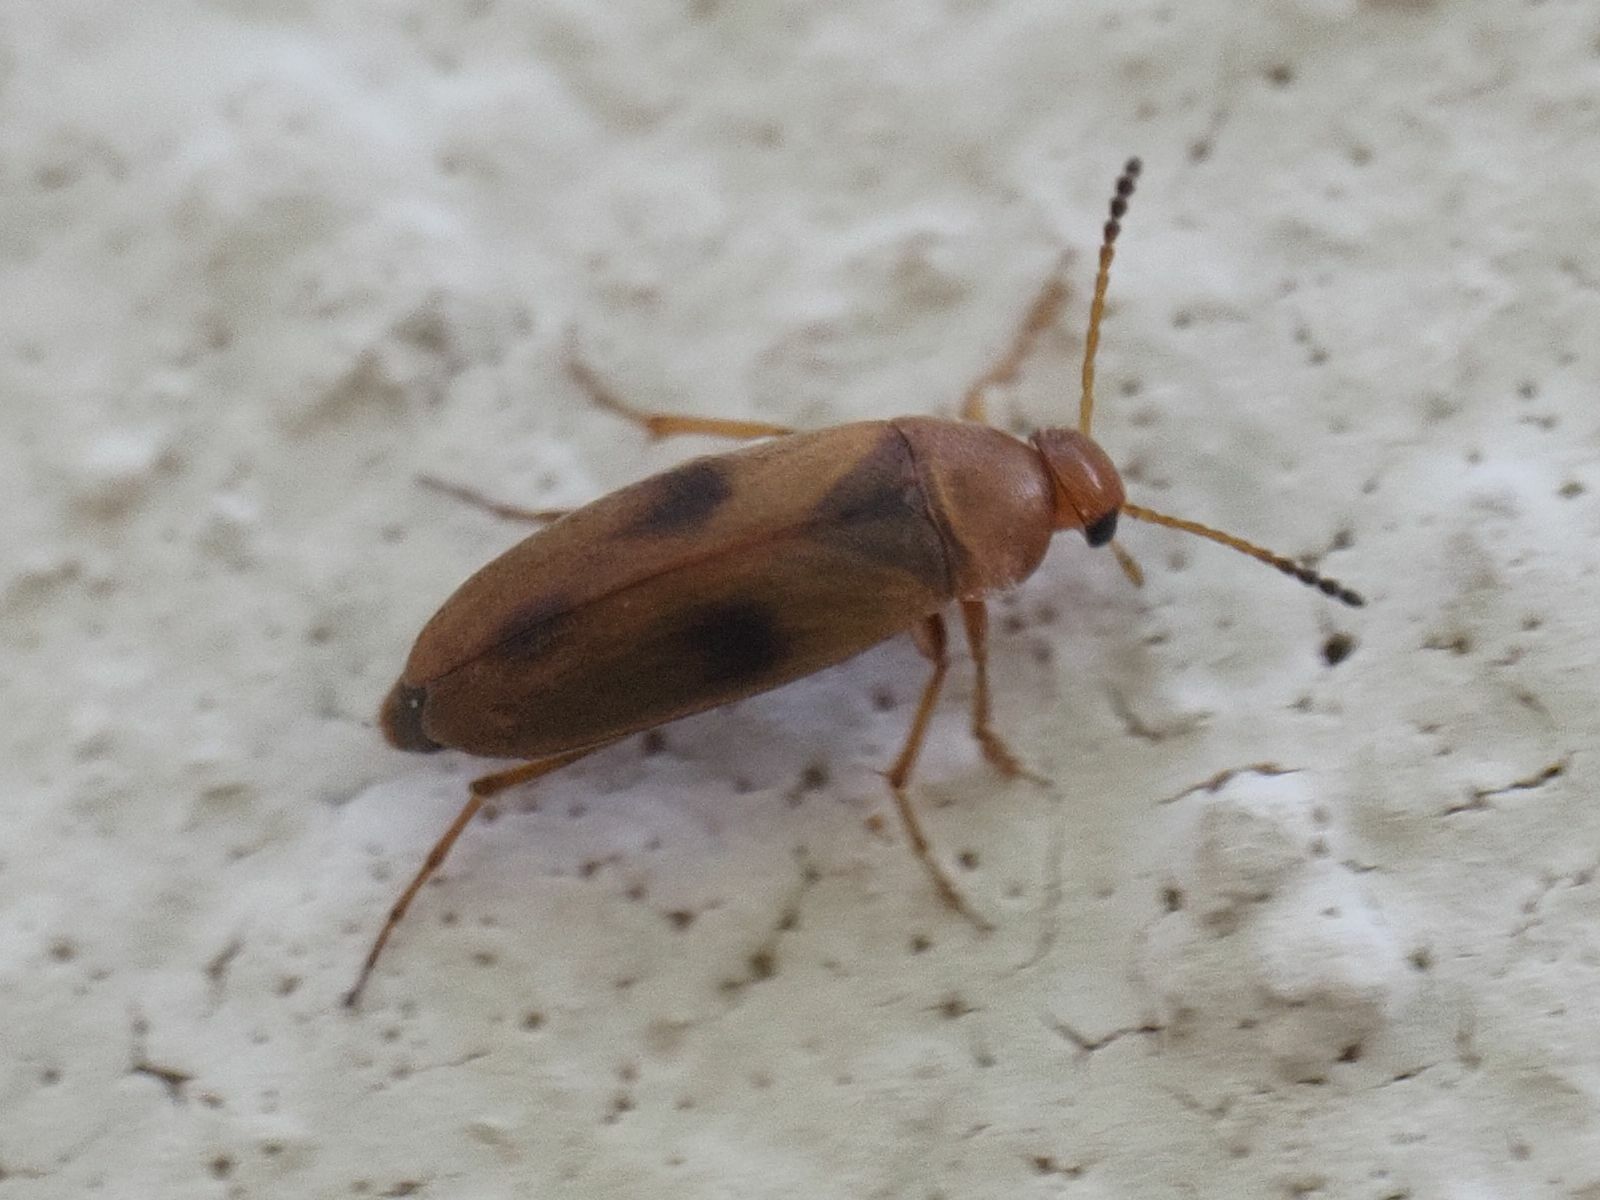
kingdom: Animalia
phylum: Arthropoda
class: Insecta
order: Coleoptera
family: Scraptiidae
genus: Anaspis
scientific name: Anaspis maculata
